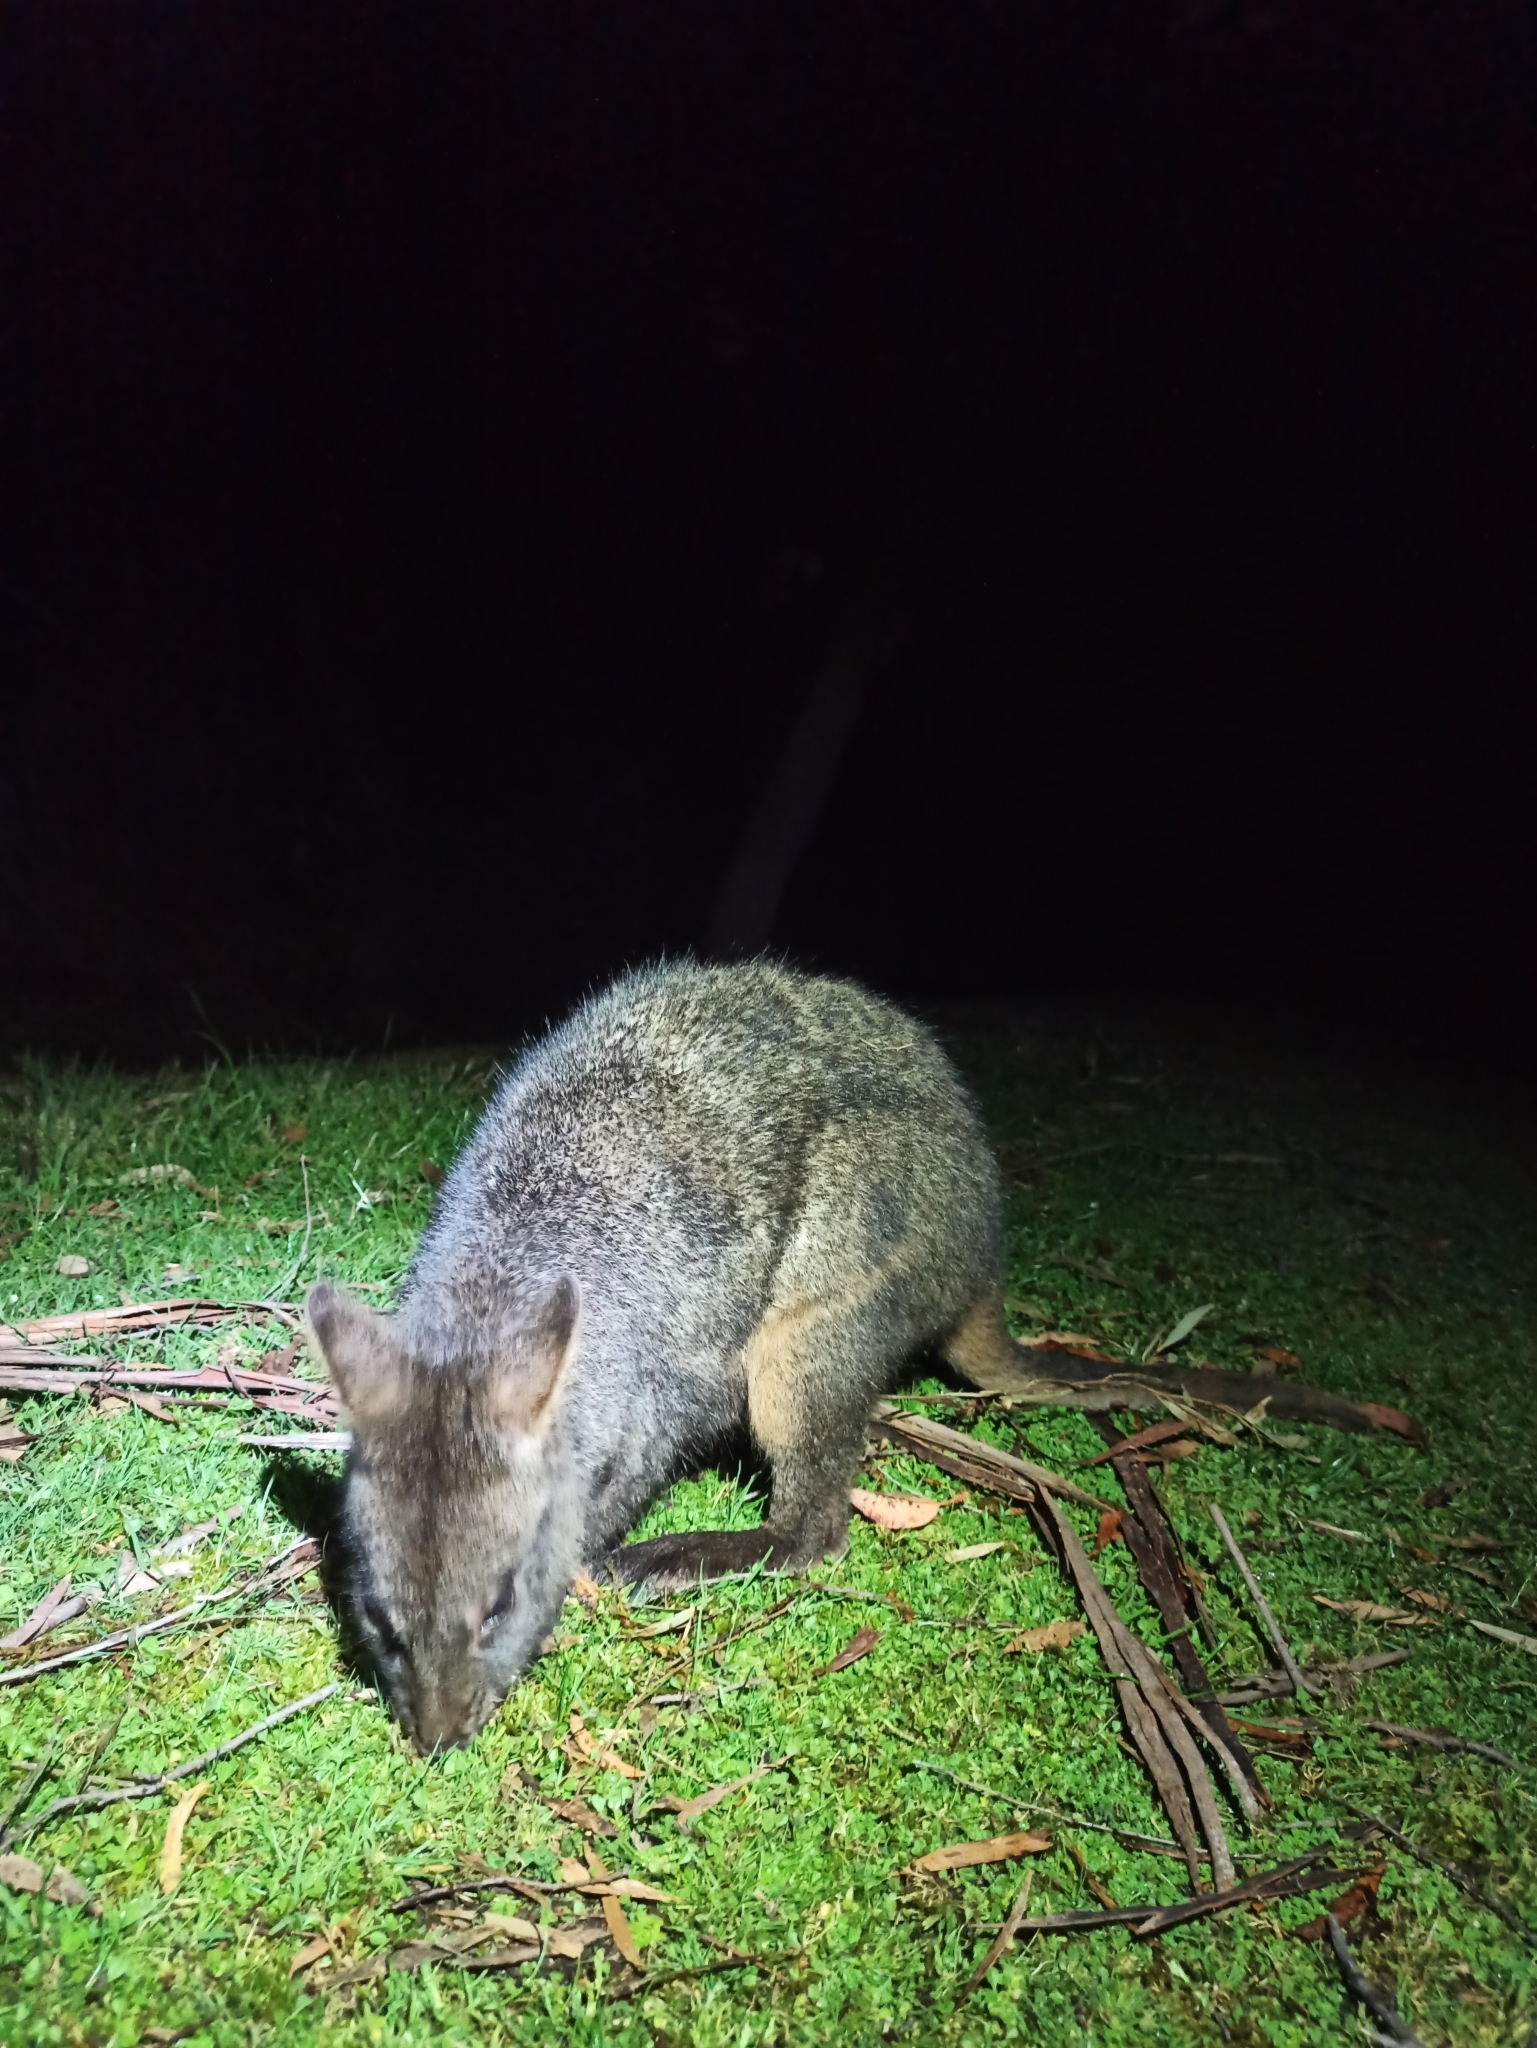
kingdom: Animalia
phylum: Chordata
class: Mammalia
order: Diprotodontia
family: Macropodidae
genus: Thylogale
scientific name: Thylogale billardierii
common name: Tasmanian pademelon
